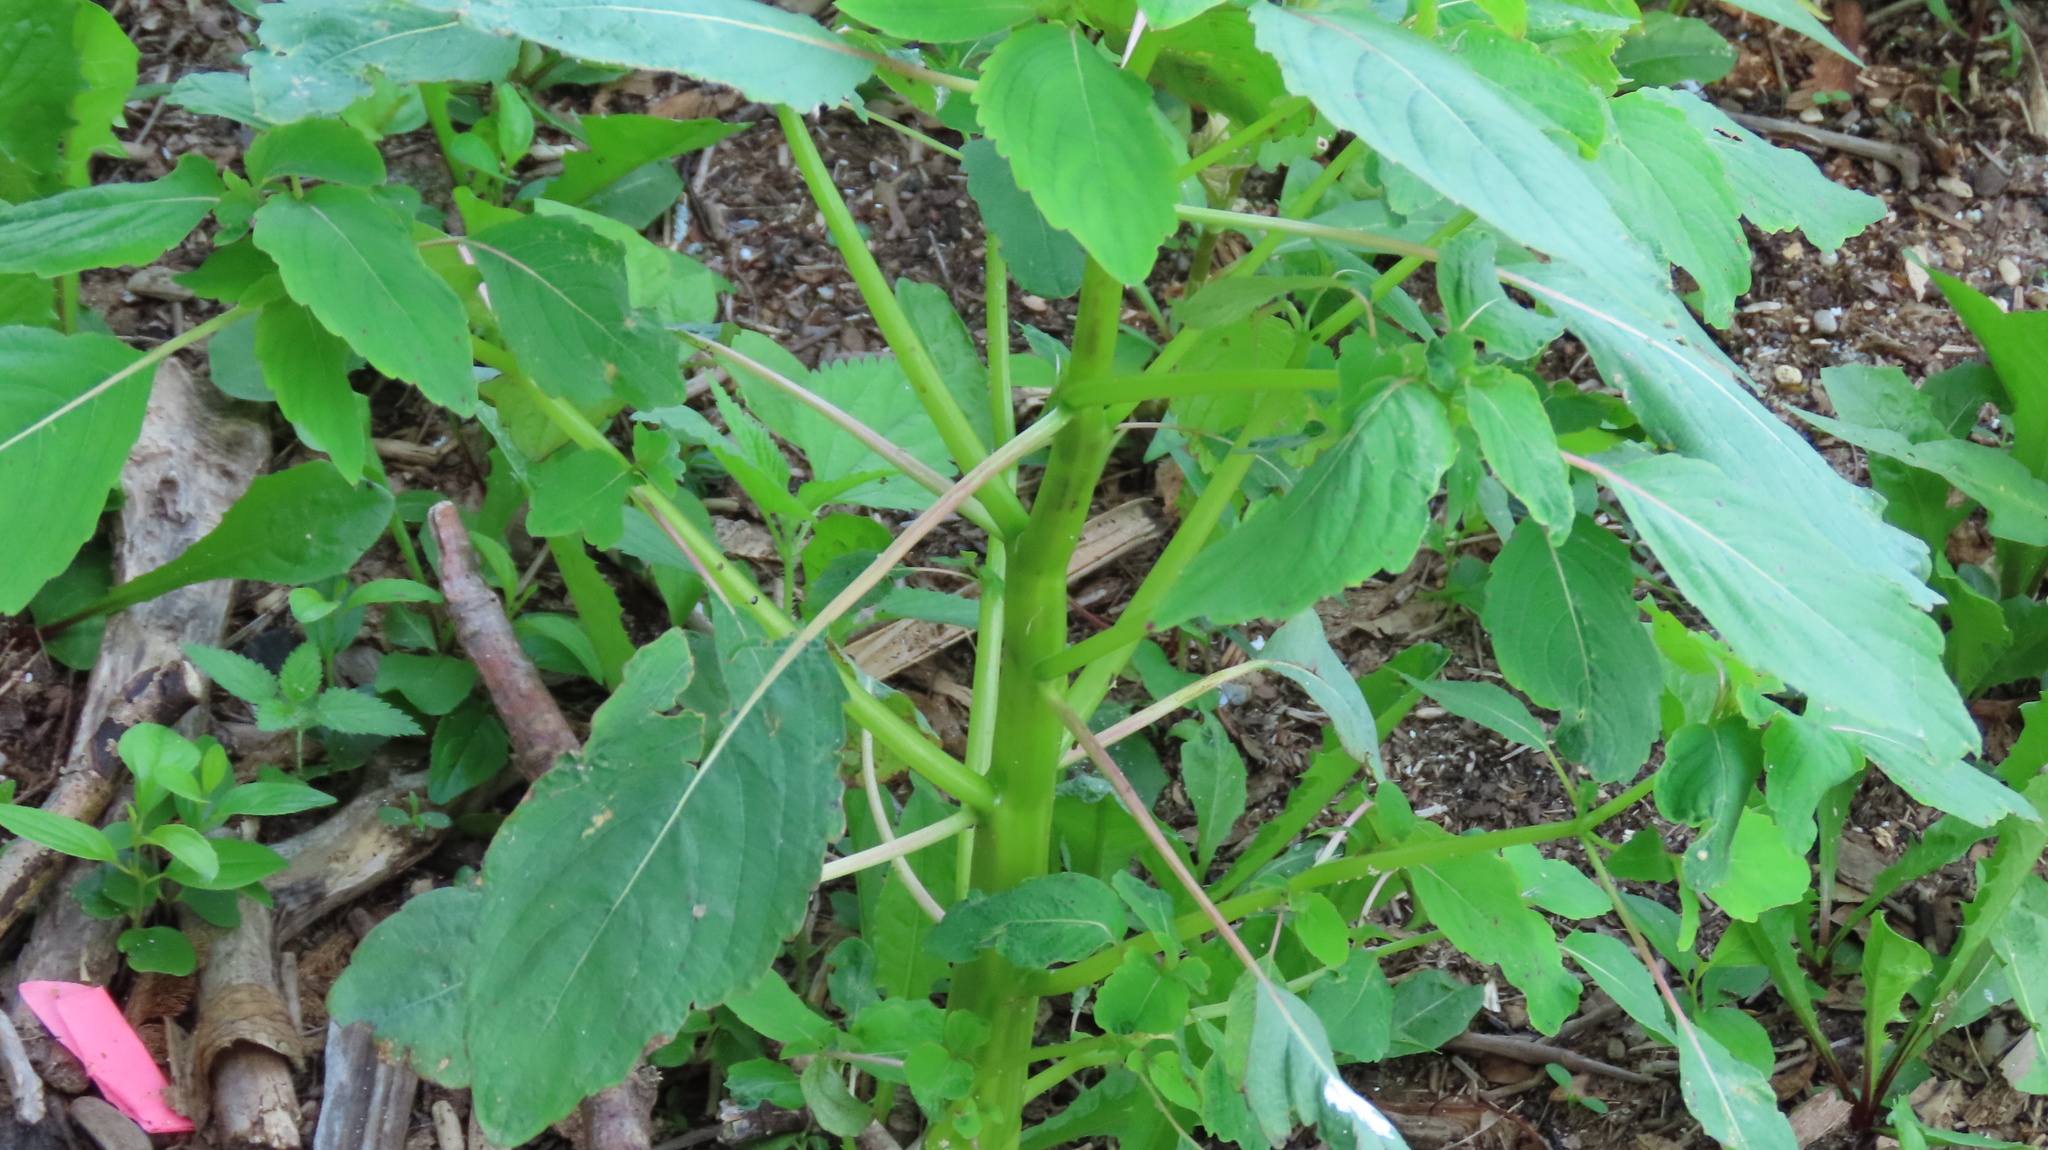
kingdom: Plantae
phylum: Tracheophyta
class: Magnoliopsida
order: Ericales
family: Balsaminaceae
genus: Impatiens
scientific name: Impatiens capensis
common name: Orange balsam
